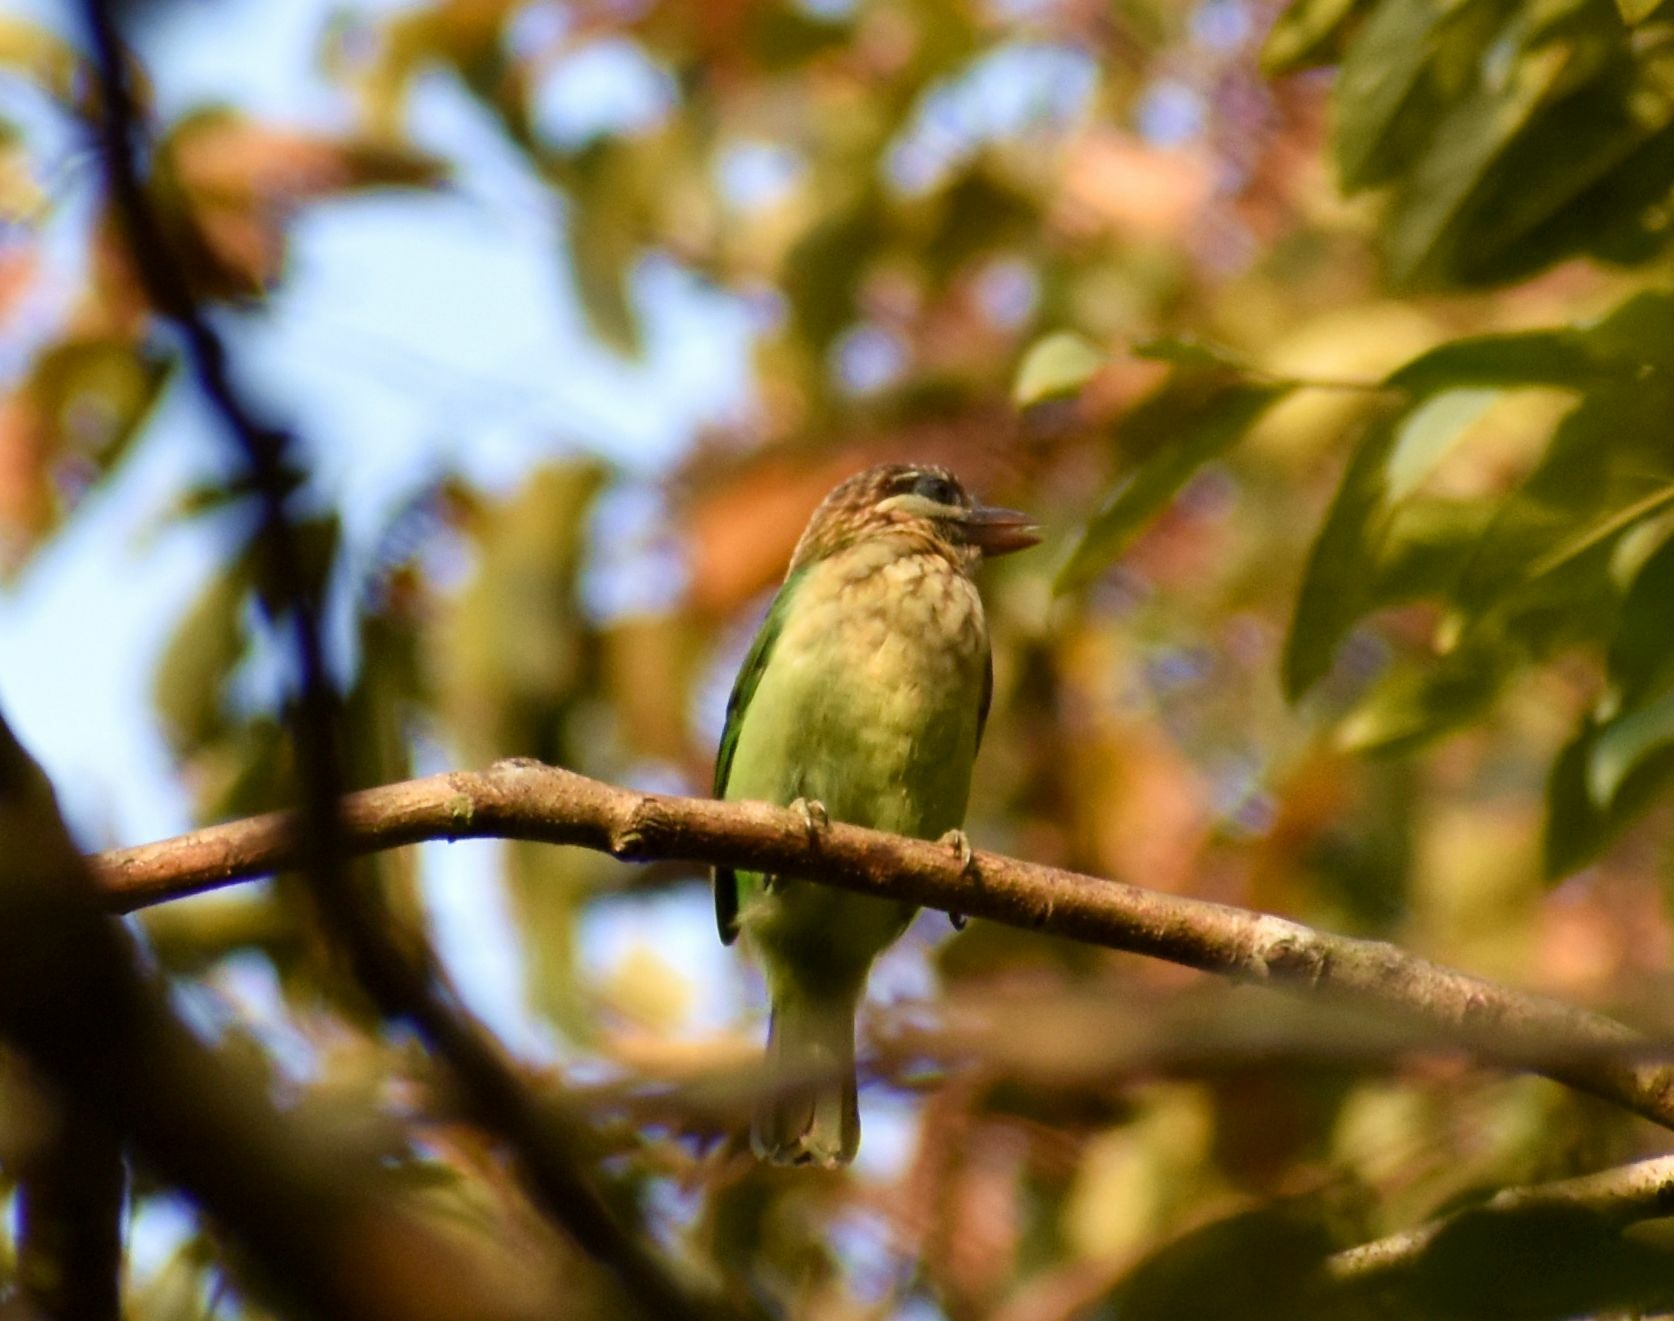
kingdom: Animalia
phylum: Chordata
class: Aves
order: Piciformes
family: Megalaimidae
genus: Psilopogon
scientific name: Psilopogon viridis
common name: White-cheeked barbet
